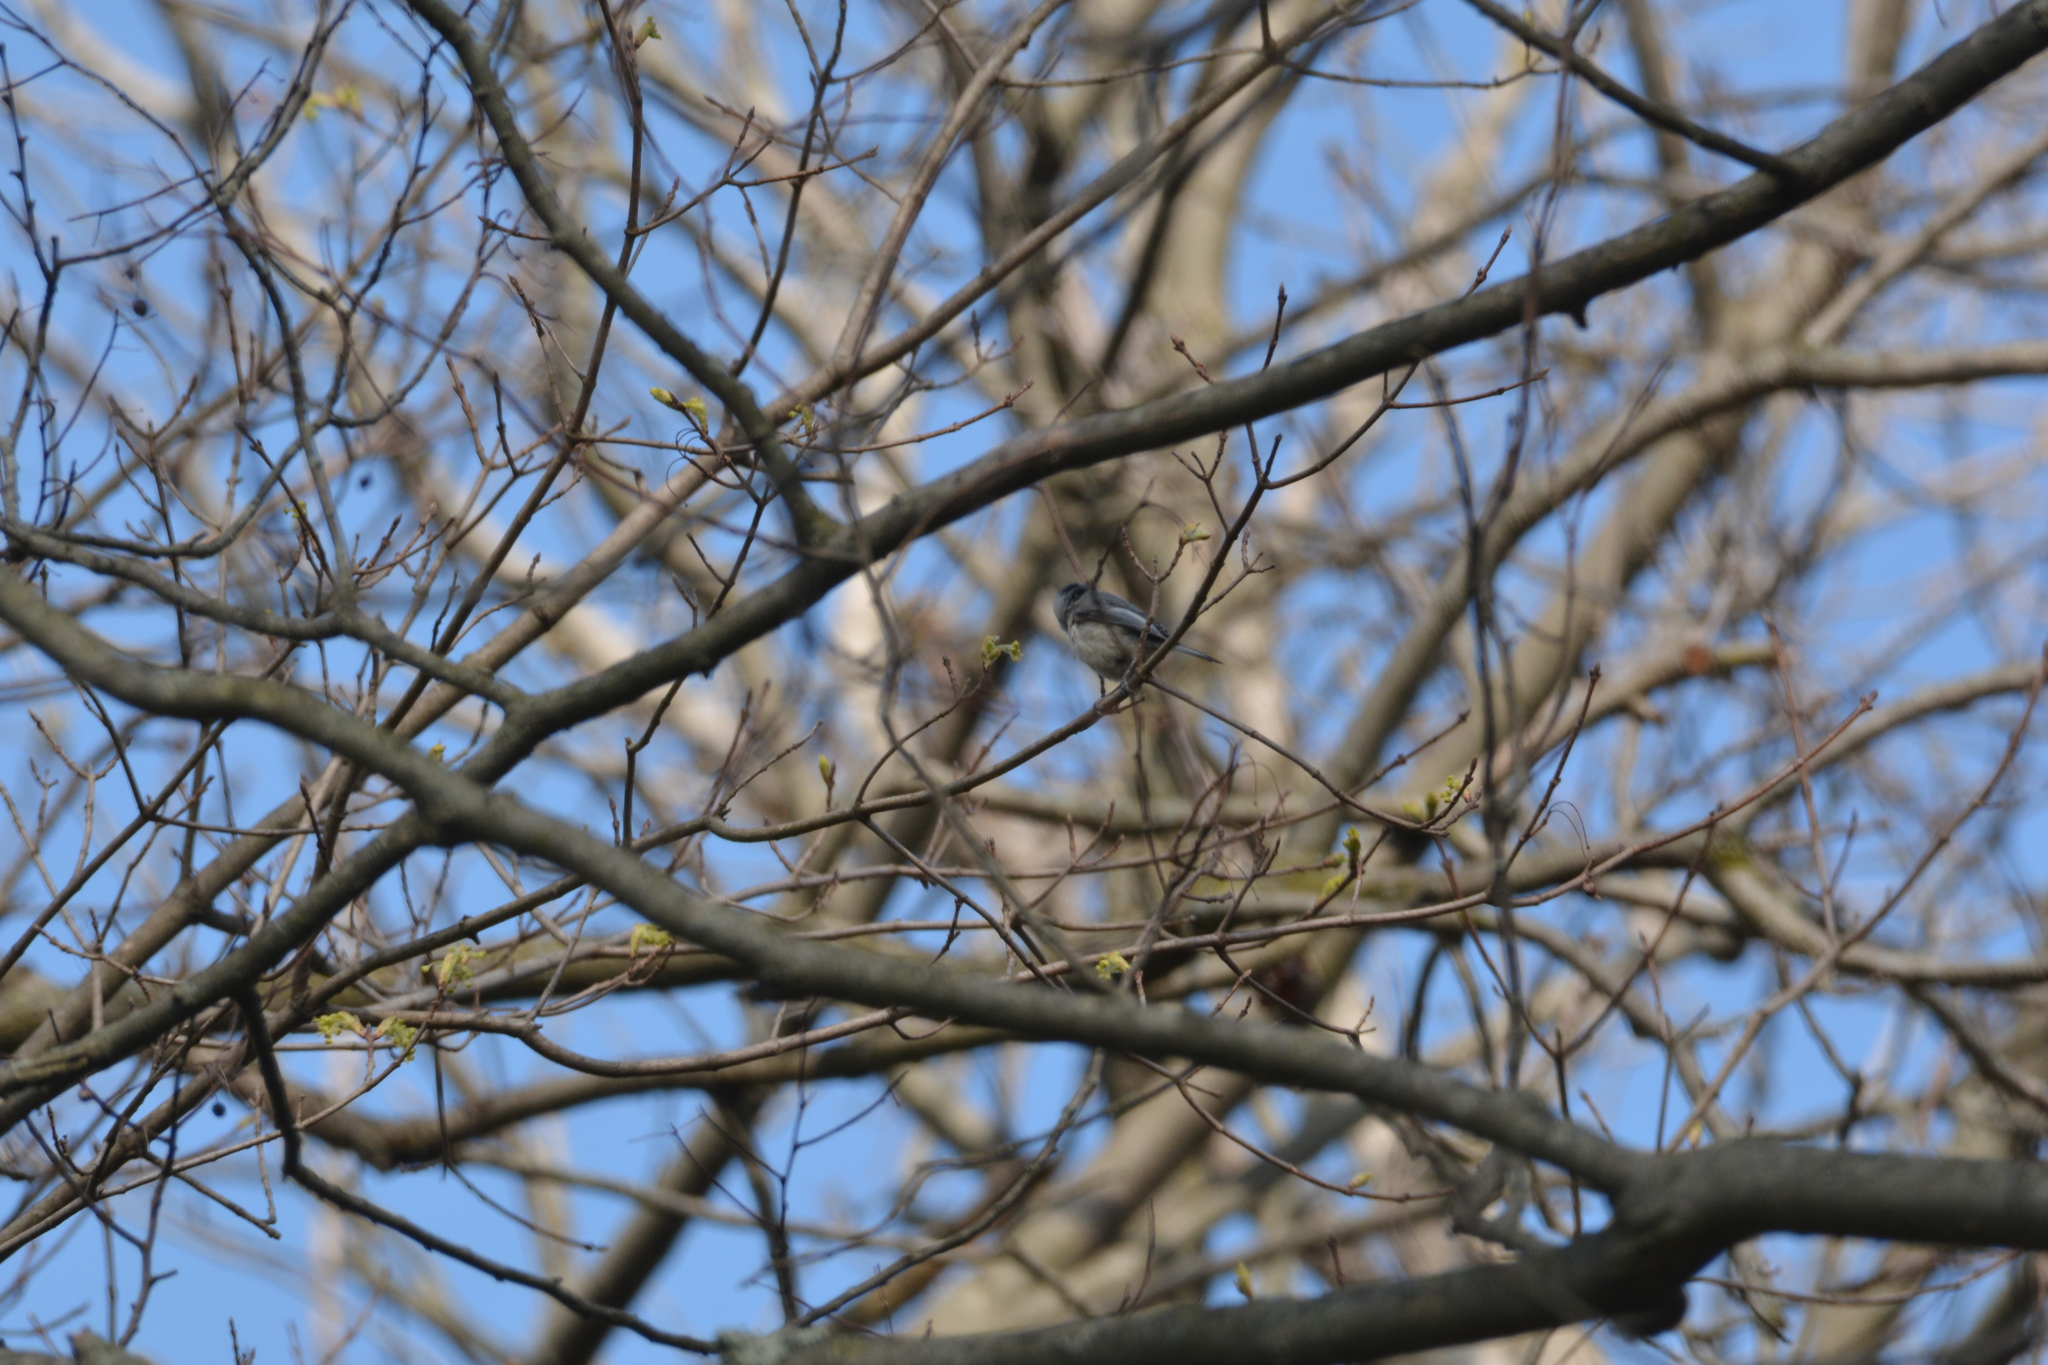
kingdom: Animalia
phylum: Chordata
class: Aves
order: Passeriformes
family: Paridae
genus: Poecile
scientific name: Poecile carolinensis
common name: Carolina chickadee
